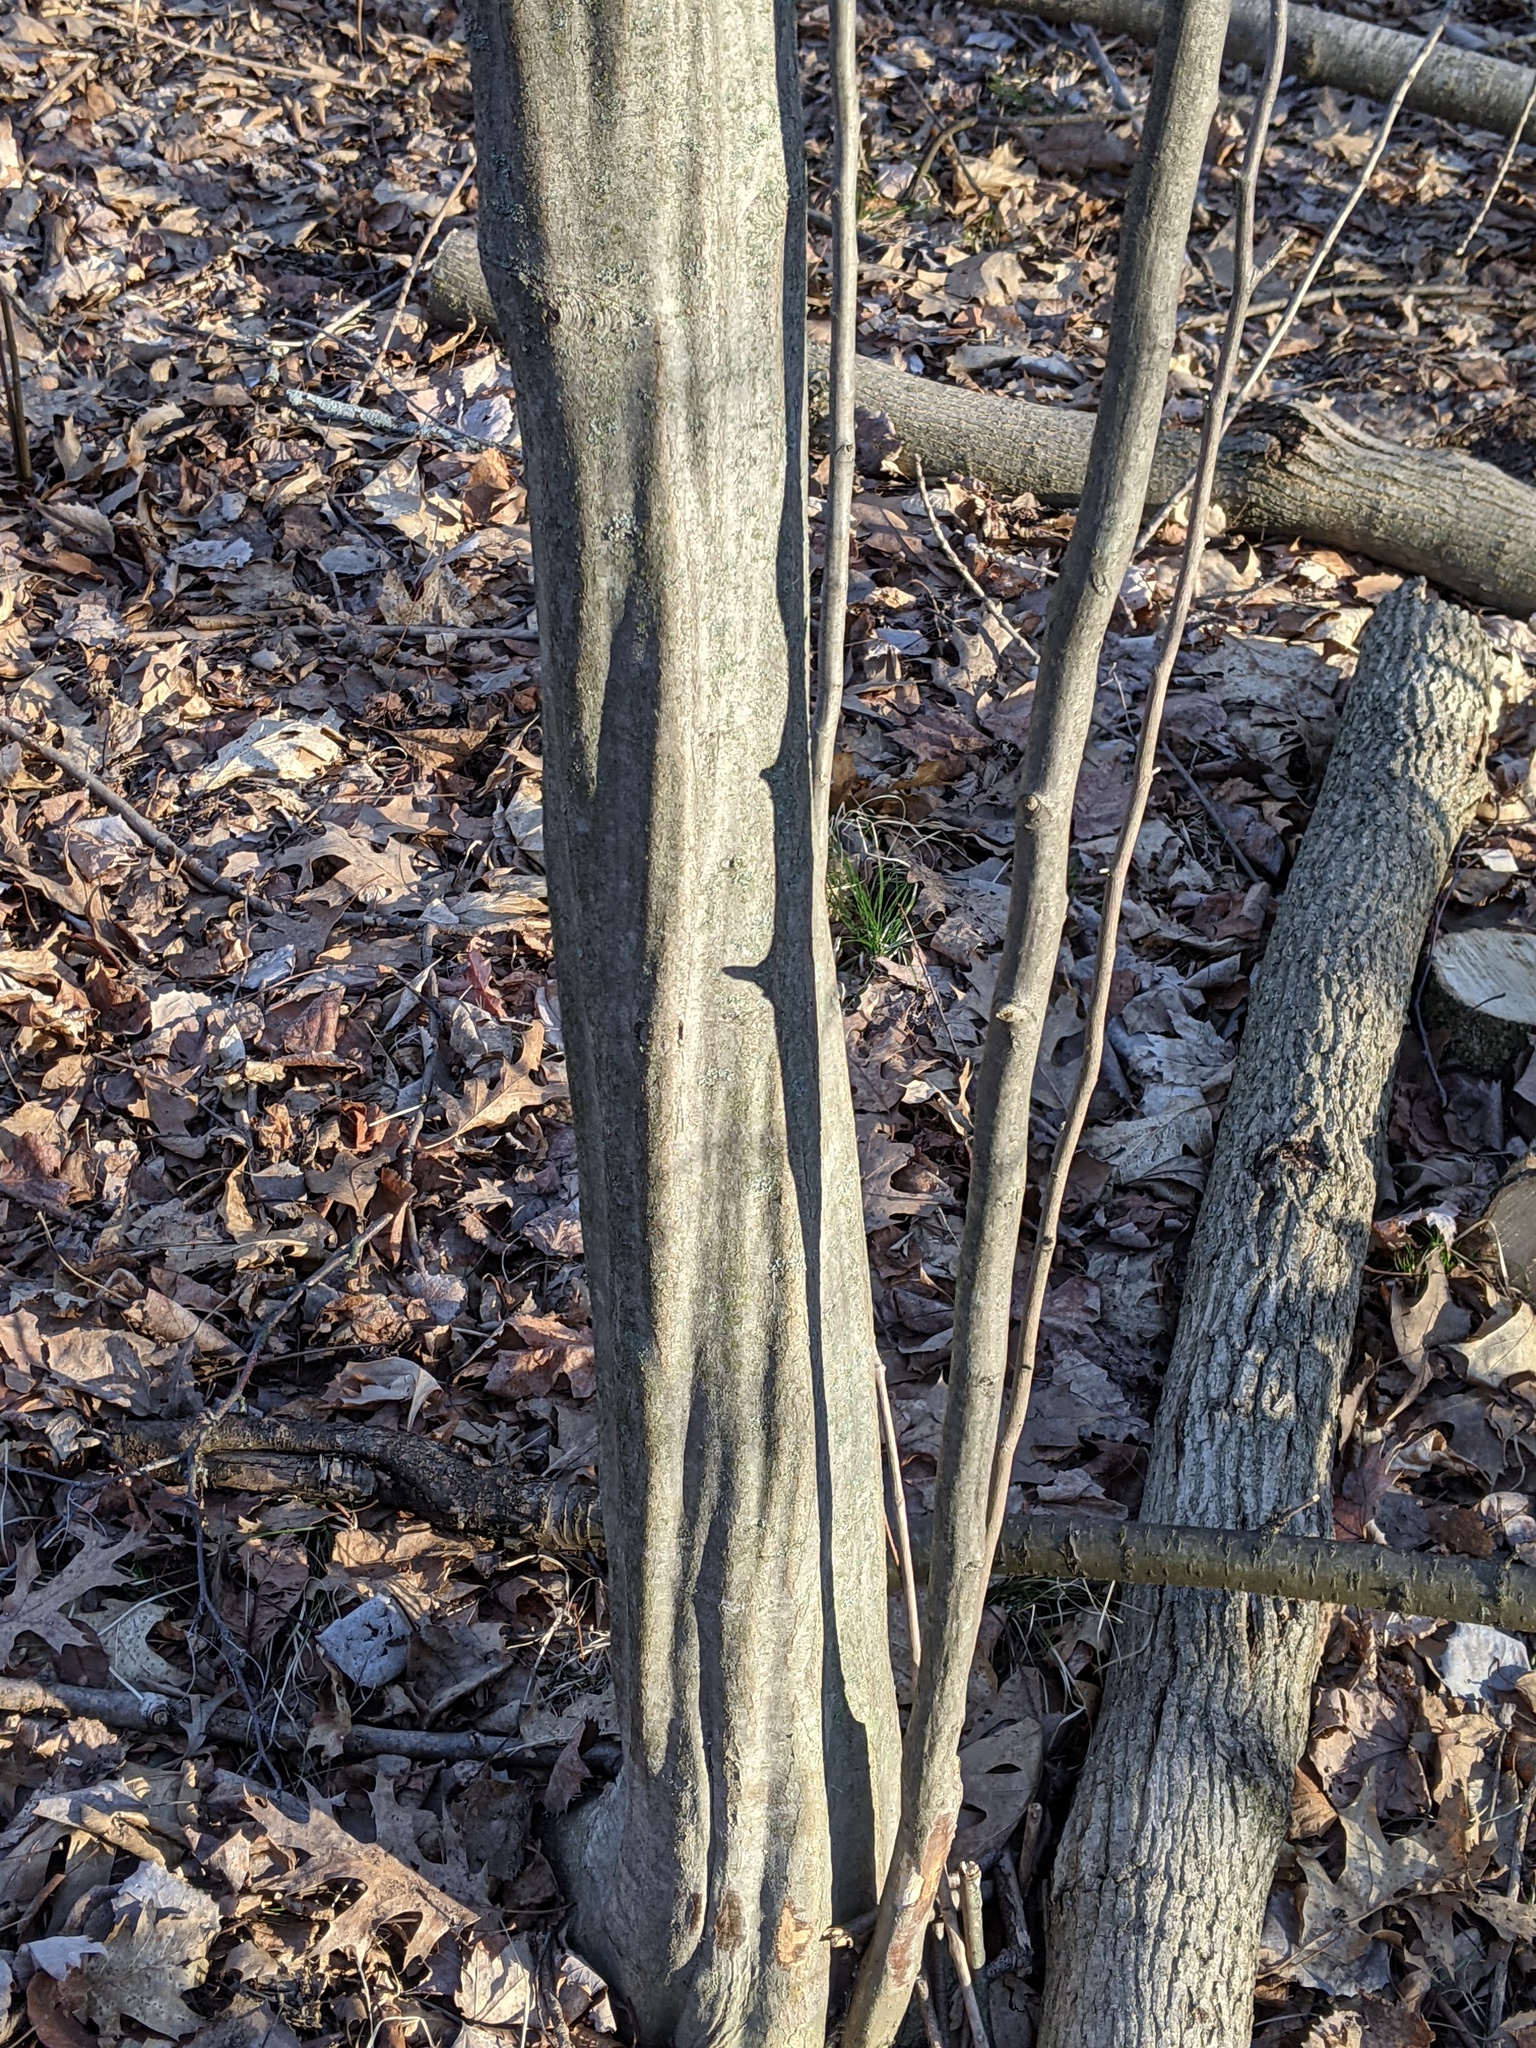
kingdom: Plantae
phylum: Tracheophyta
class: Magnoliopsida
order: Fagales
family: Betulaceae
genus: Carpinus
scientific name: Carpinus caroliniana
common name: American hornbeam
